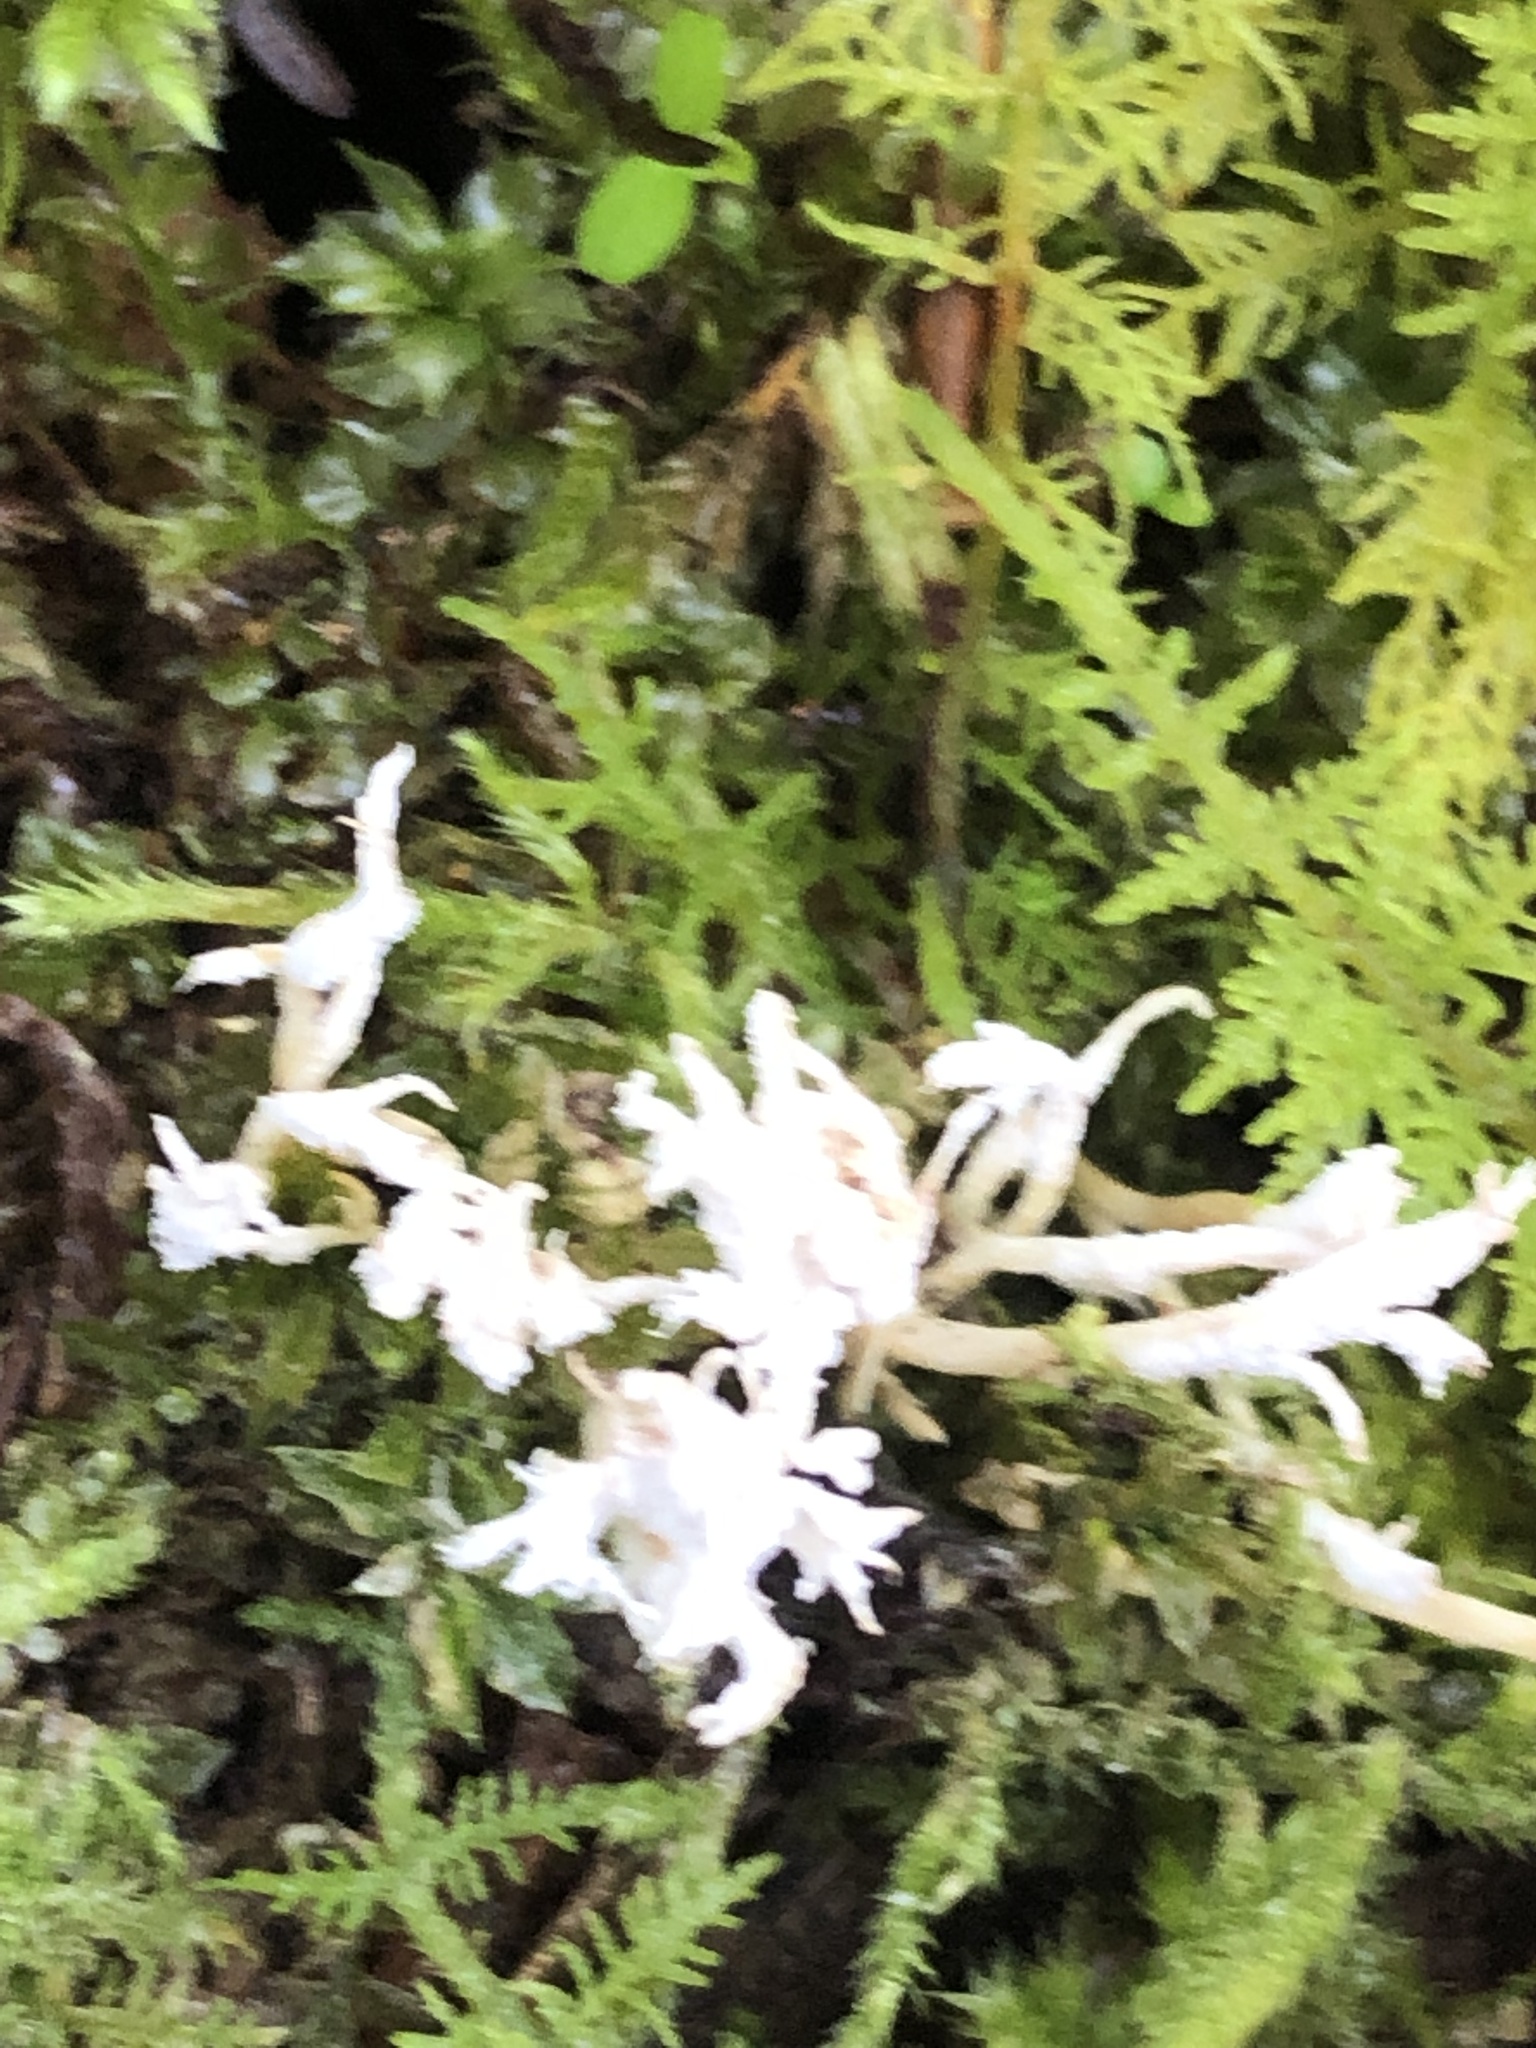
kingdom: Fungi
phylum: Ascomycota
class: Sordariomycetes
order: Hypocreales
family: Cordycipitaceae
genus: Cordyceps
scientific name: Cordyceps tenuipes
